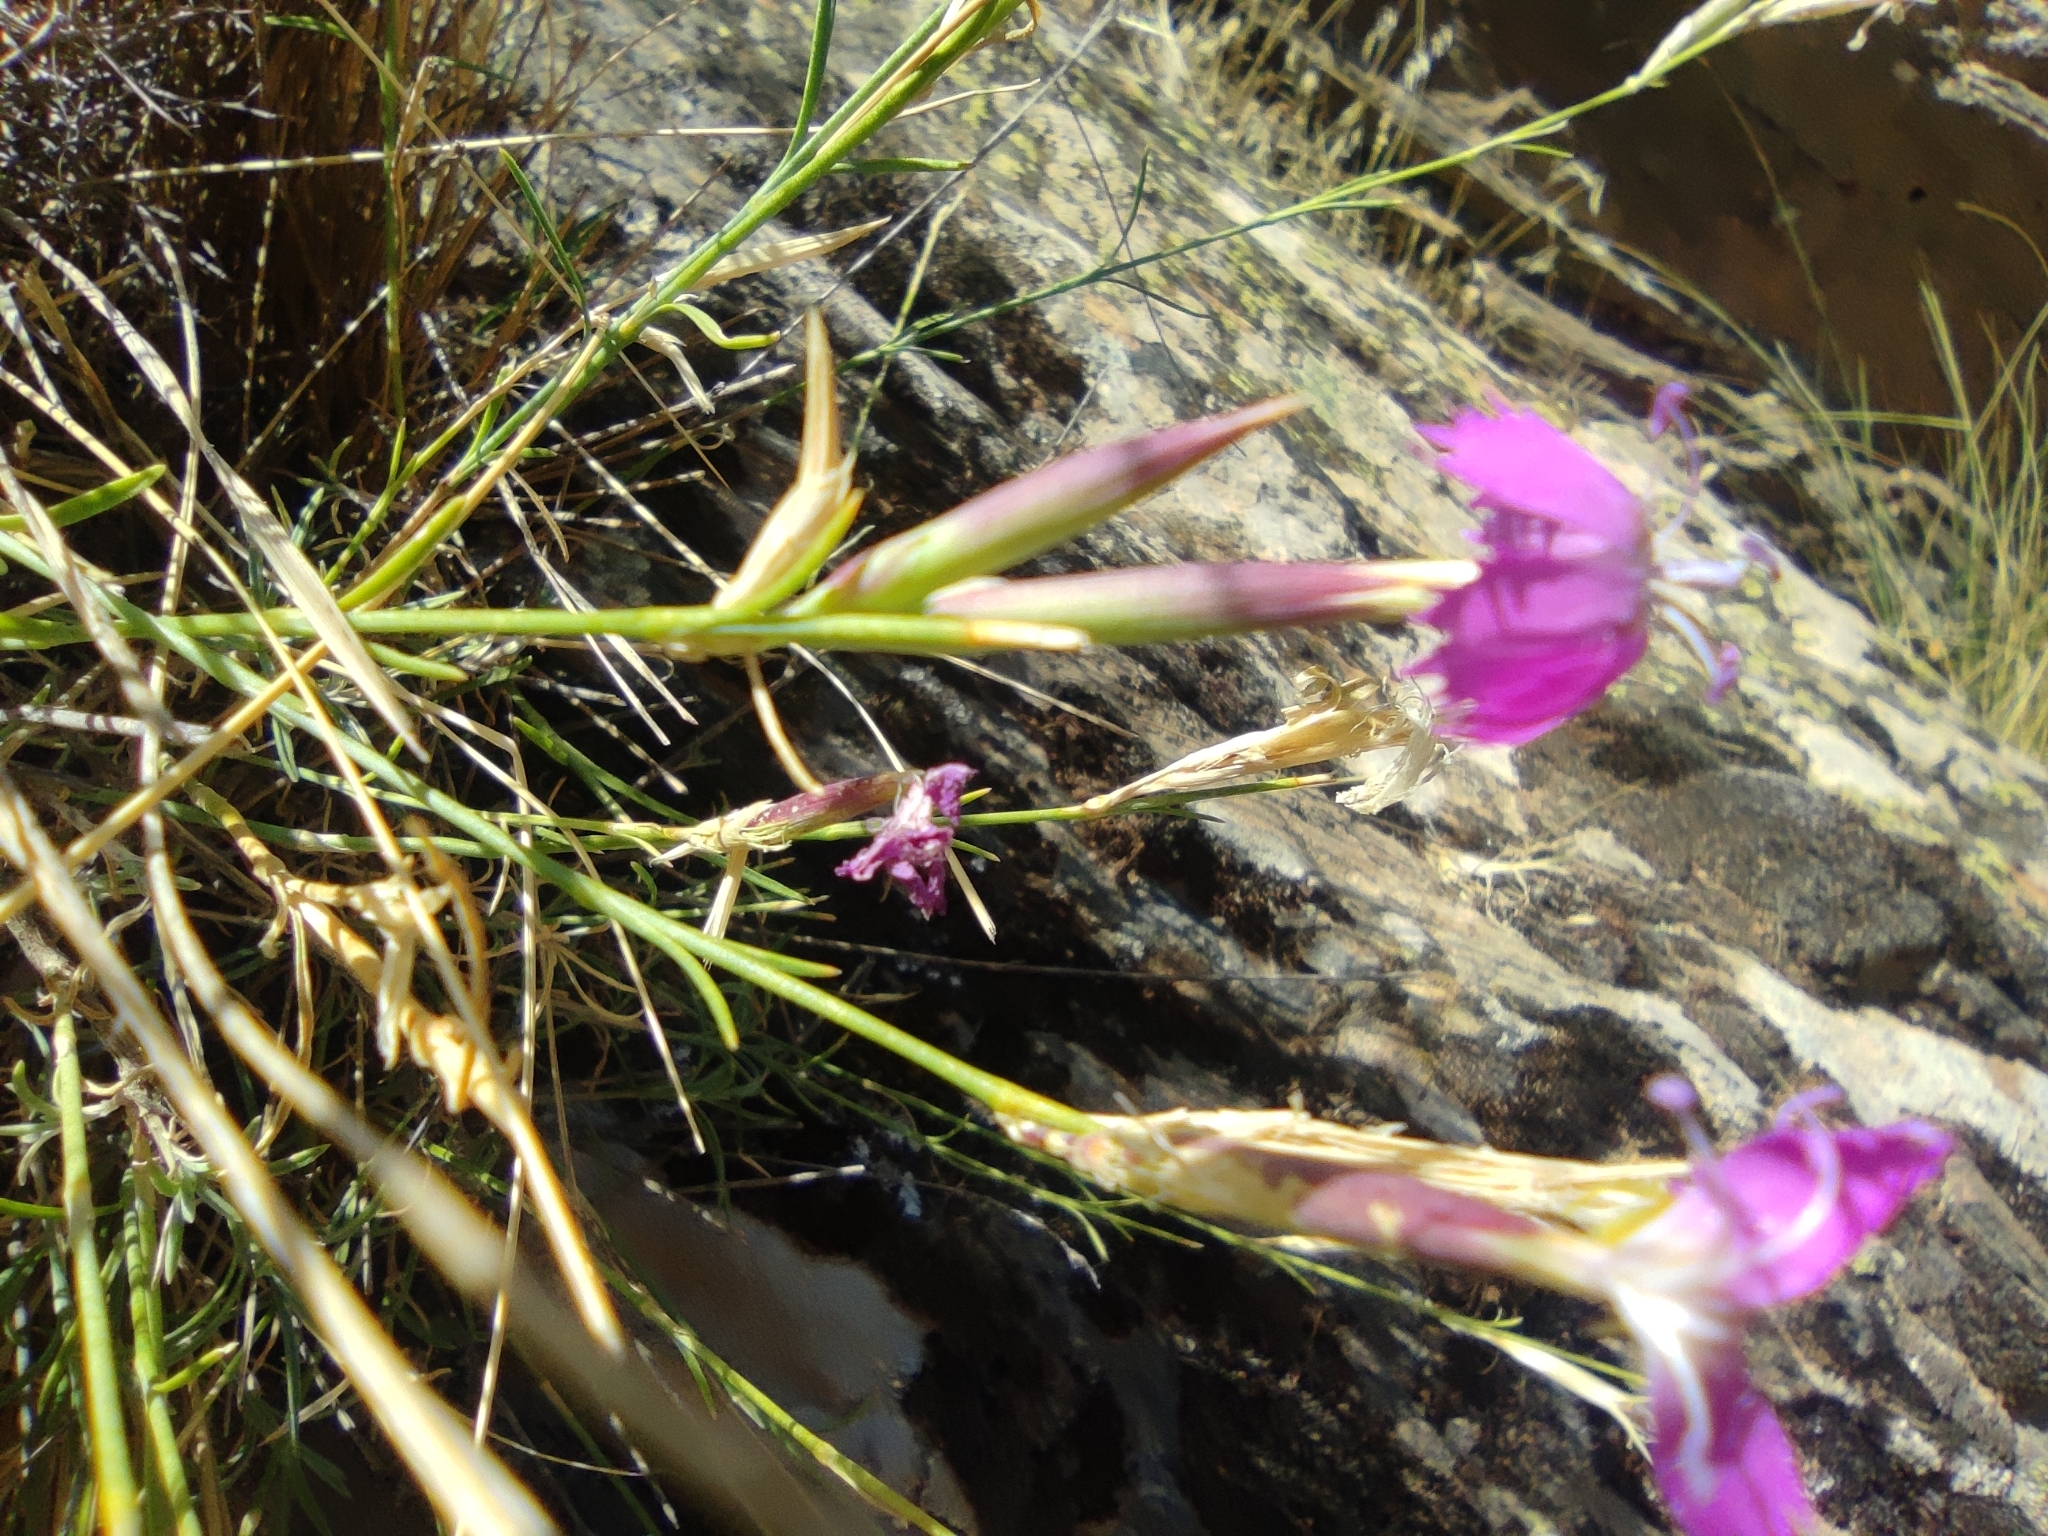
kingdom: Plantae
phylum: Tracheophyta
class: Magnoliopsida
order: Caryophyllales
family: Caryophyllaceae
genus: Dianthus
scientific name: Dianthus lusitanus
